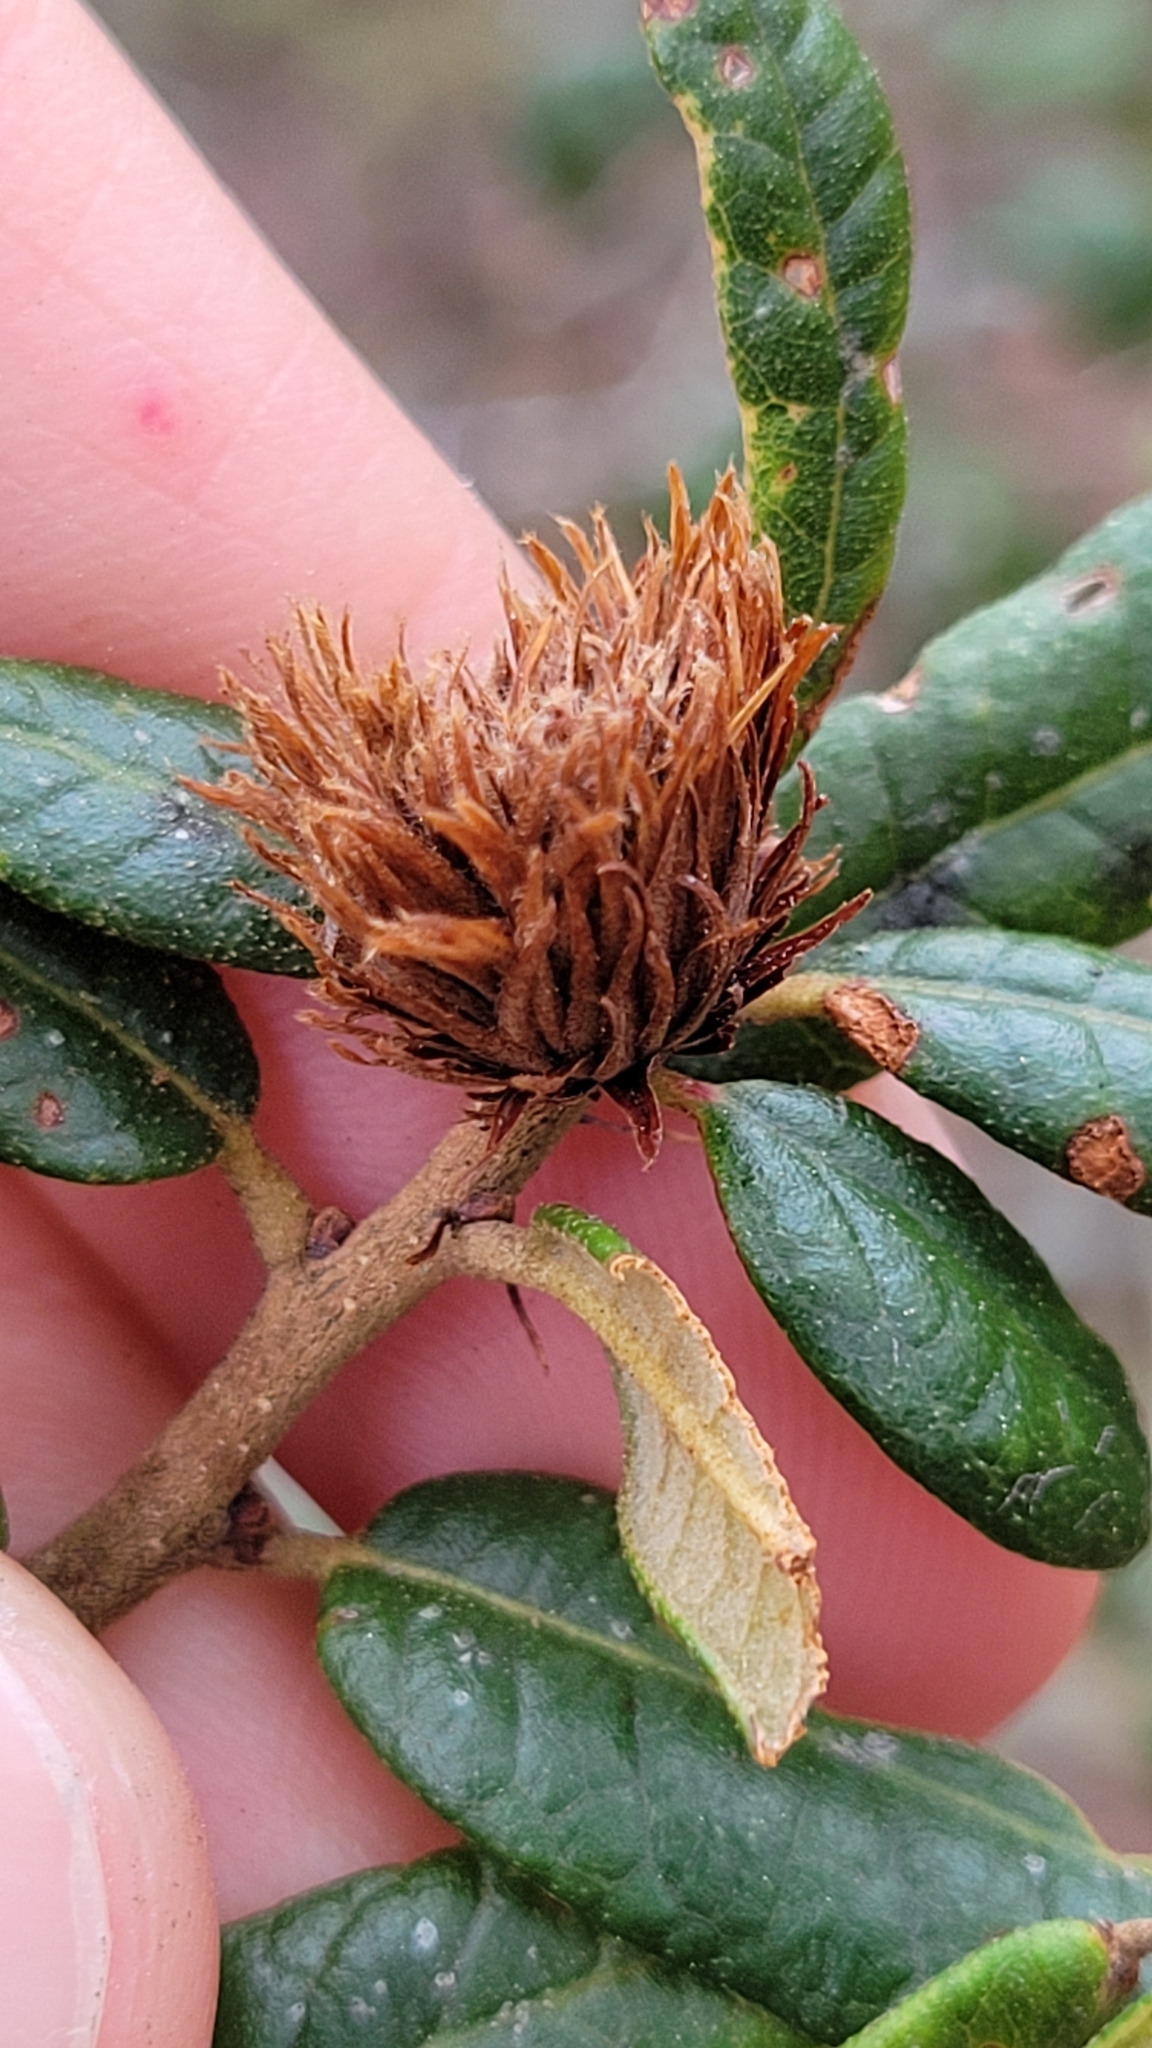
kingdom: Animalia
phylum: Arthropoda
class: Insecta
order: Hymenoptera
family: Cynipidae
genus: Andricus
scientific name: Andricus quercusfoliatus
